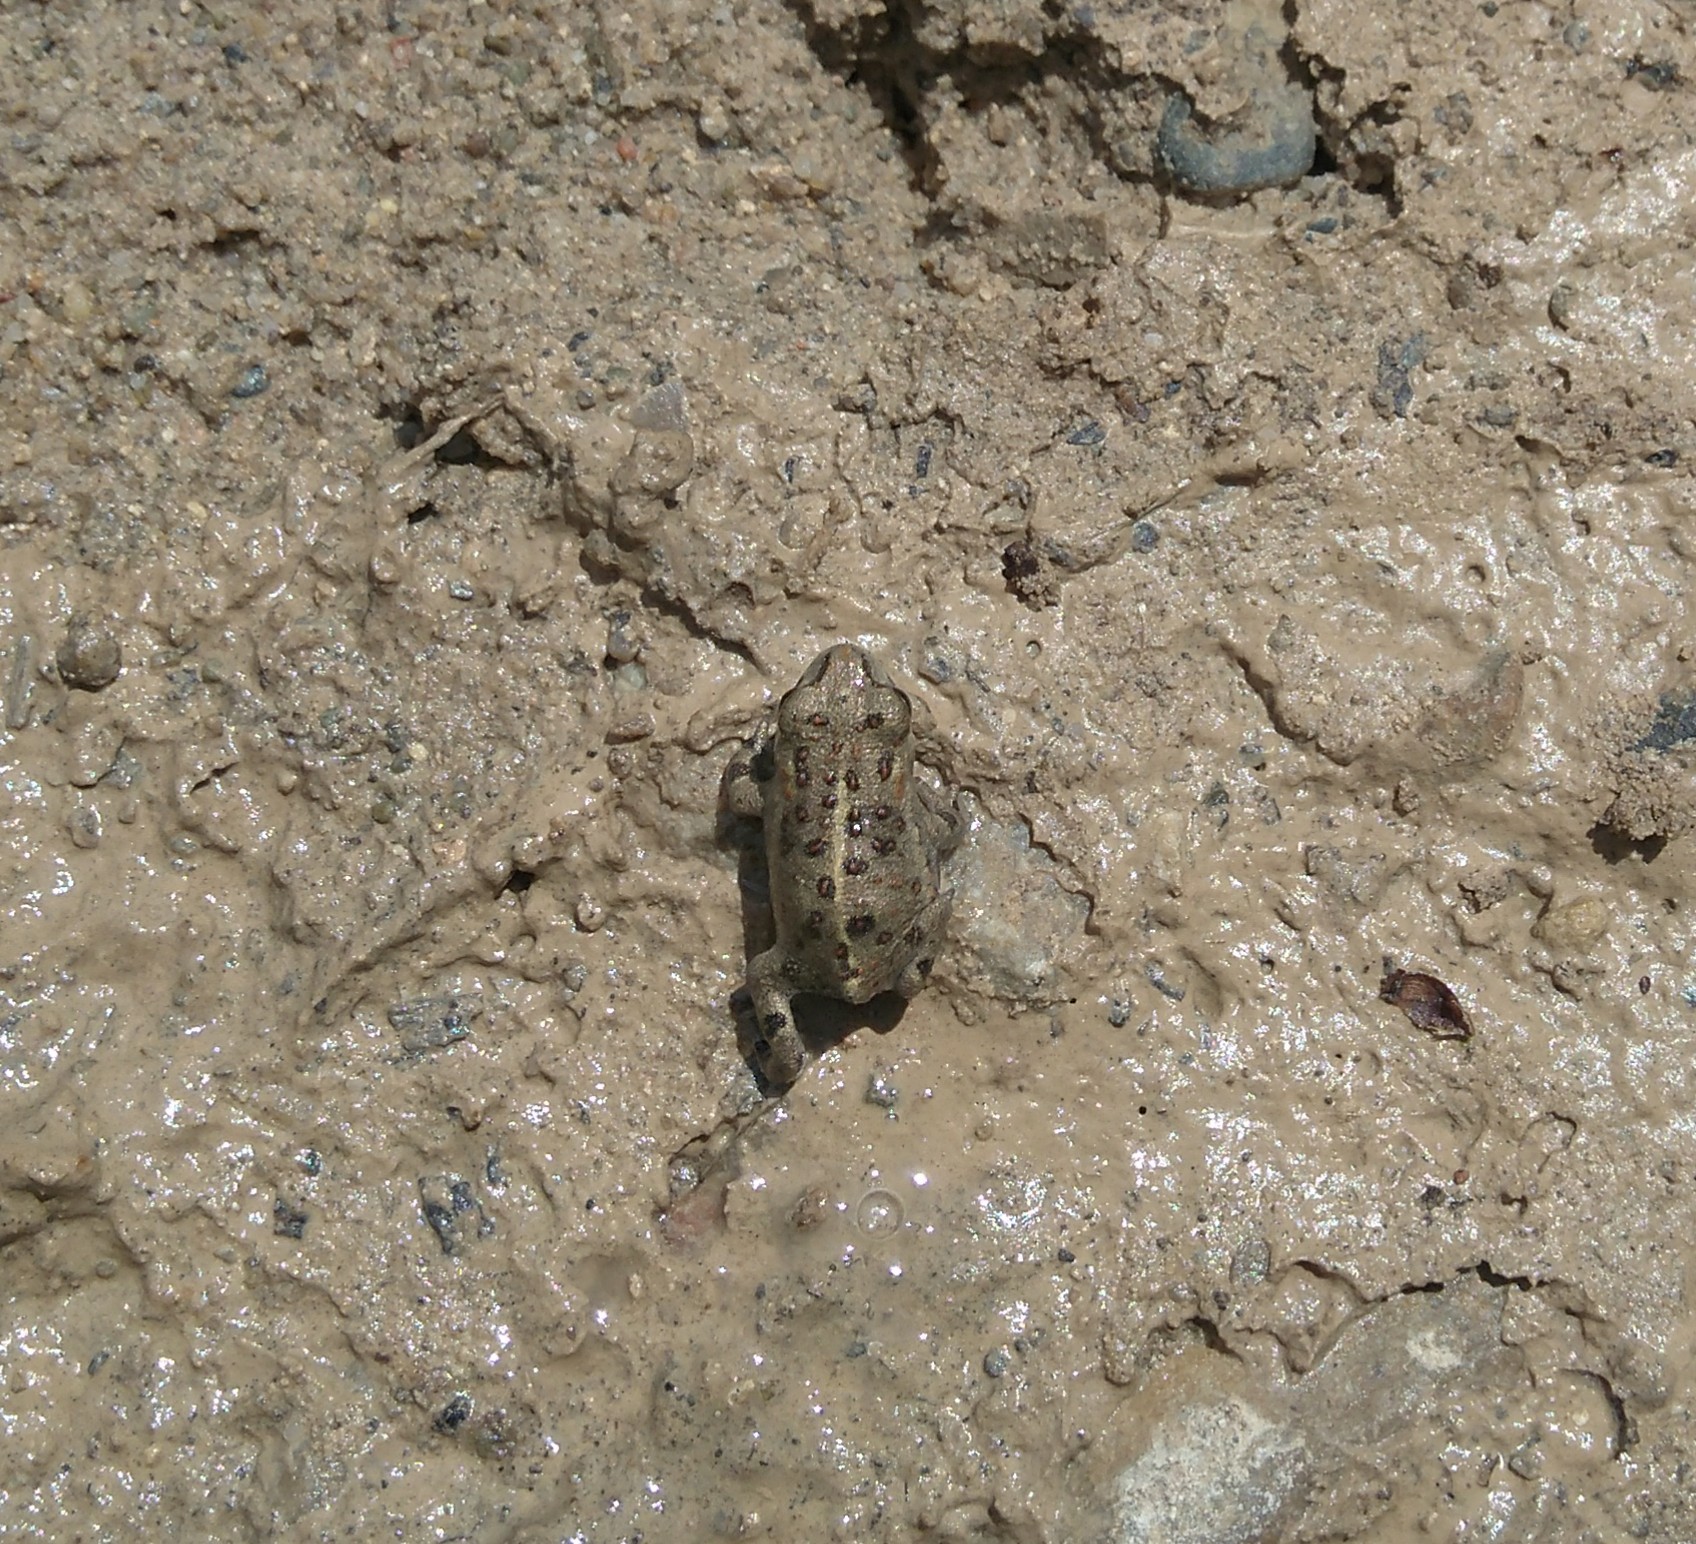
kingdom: Animalia
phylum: Chordata
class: Amphibia
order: Anura
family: Bufonidae
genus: Epidalea
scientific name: Epidalea calamita
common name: Natterjack toad
